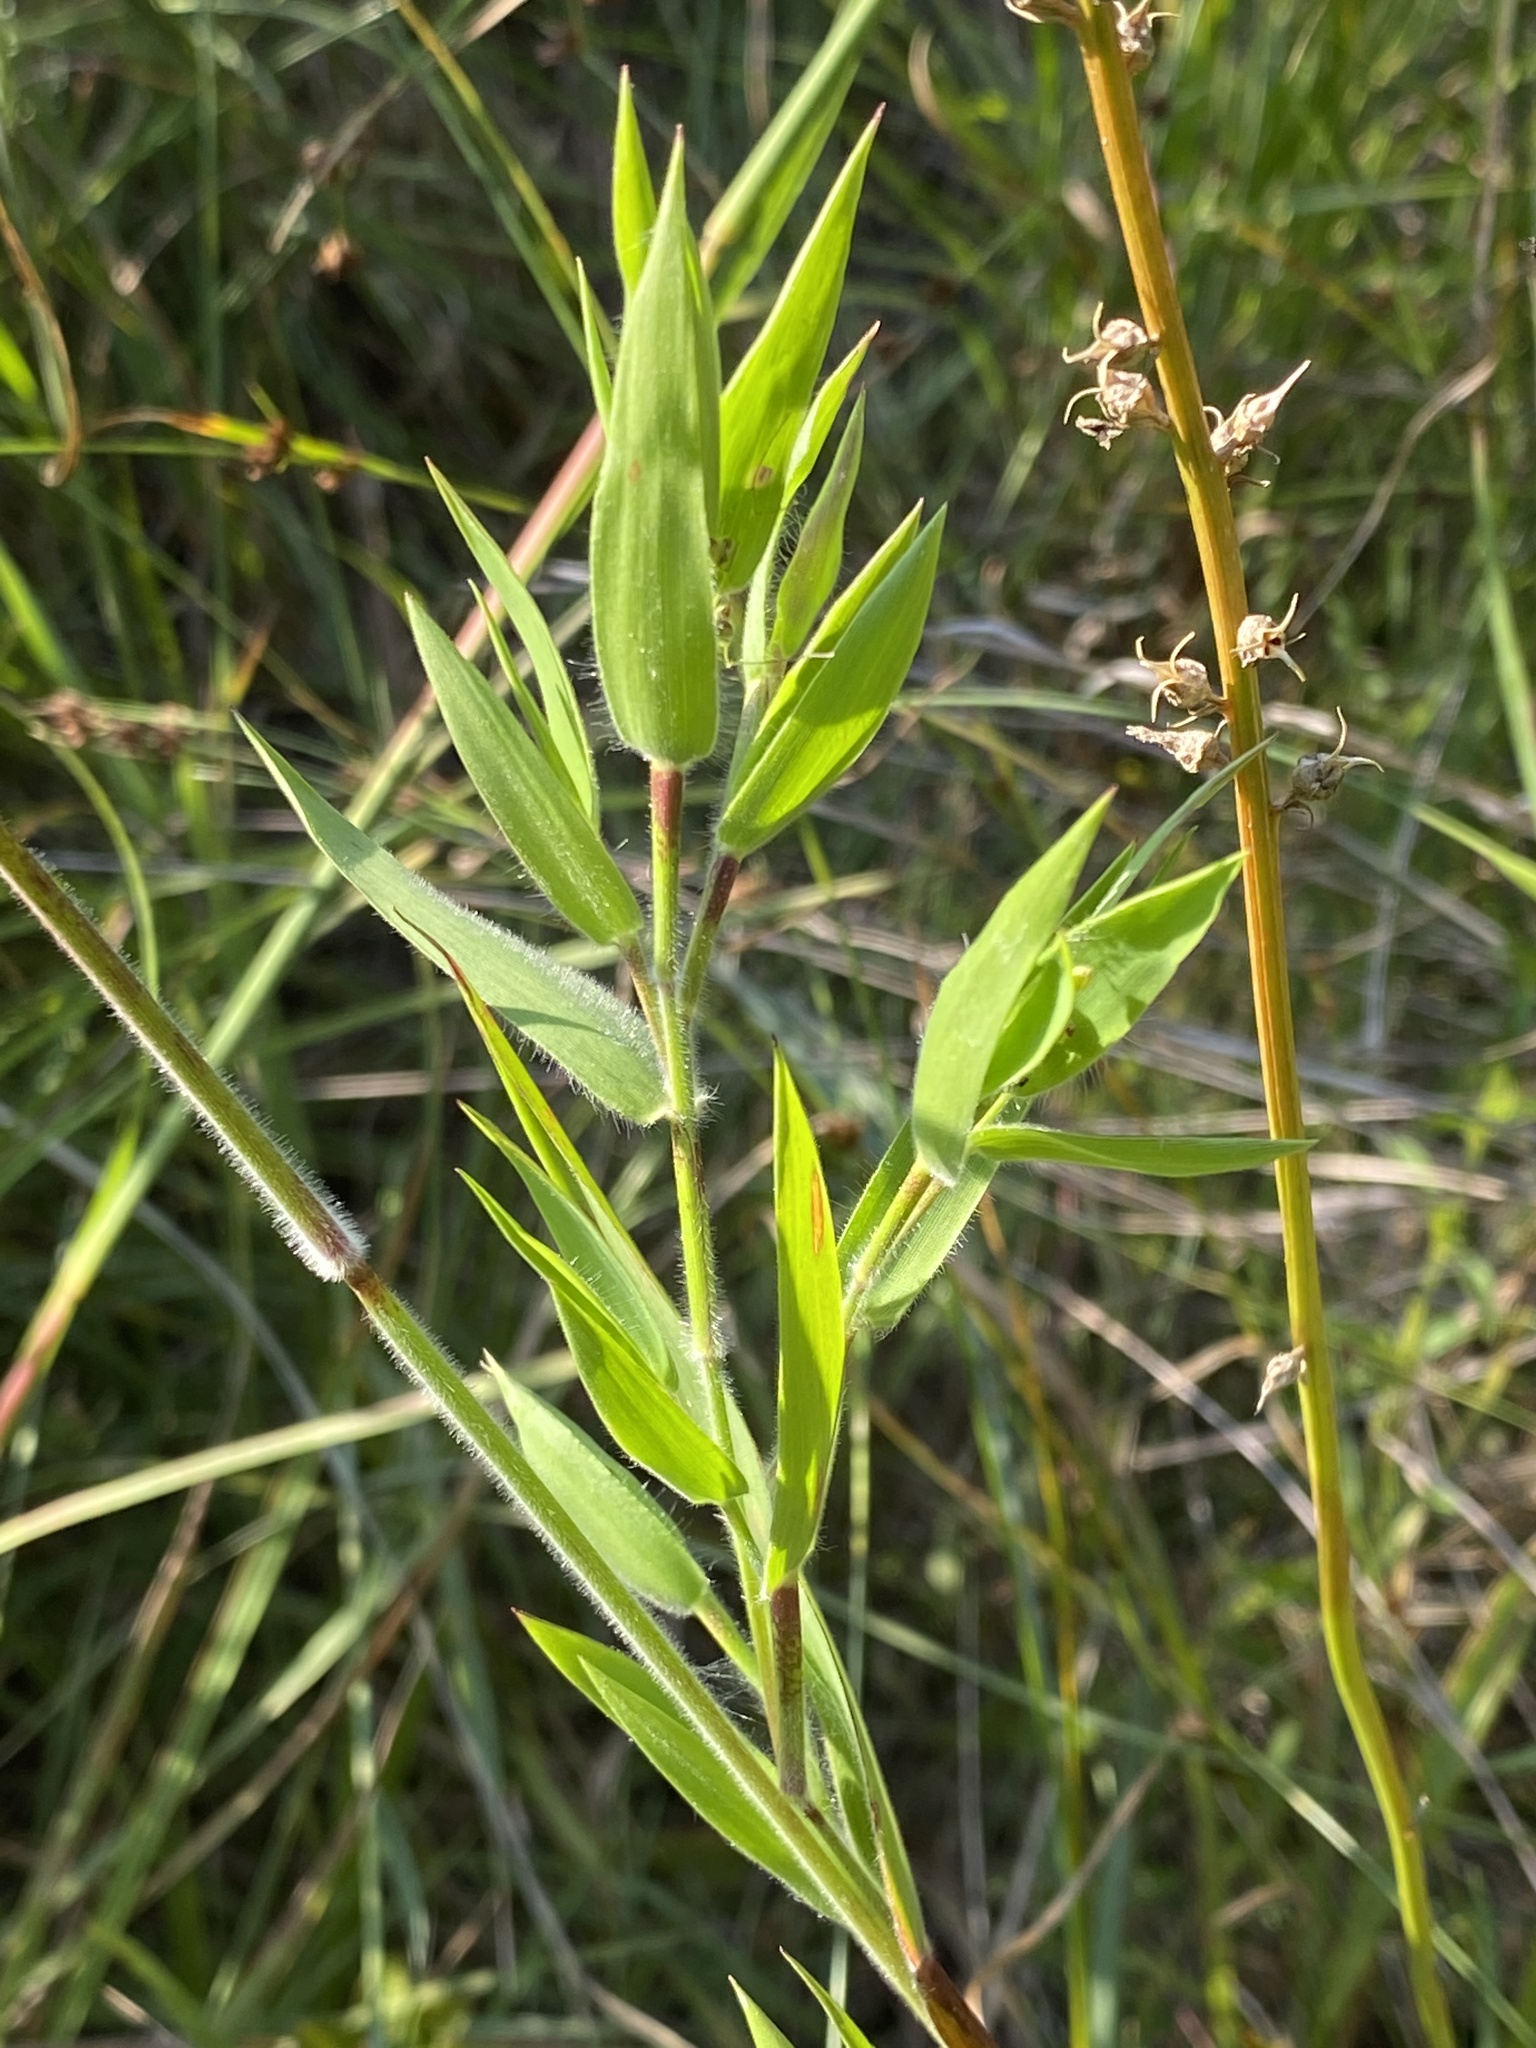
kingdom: Plantae
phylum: Tracheophyta
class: Liliopsida
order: Poales
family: Poaceae
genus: Dichanthelium
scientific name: Dichanthelium scoparium
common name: Velvety panic grass
